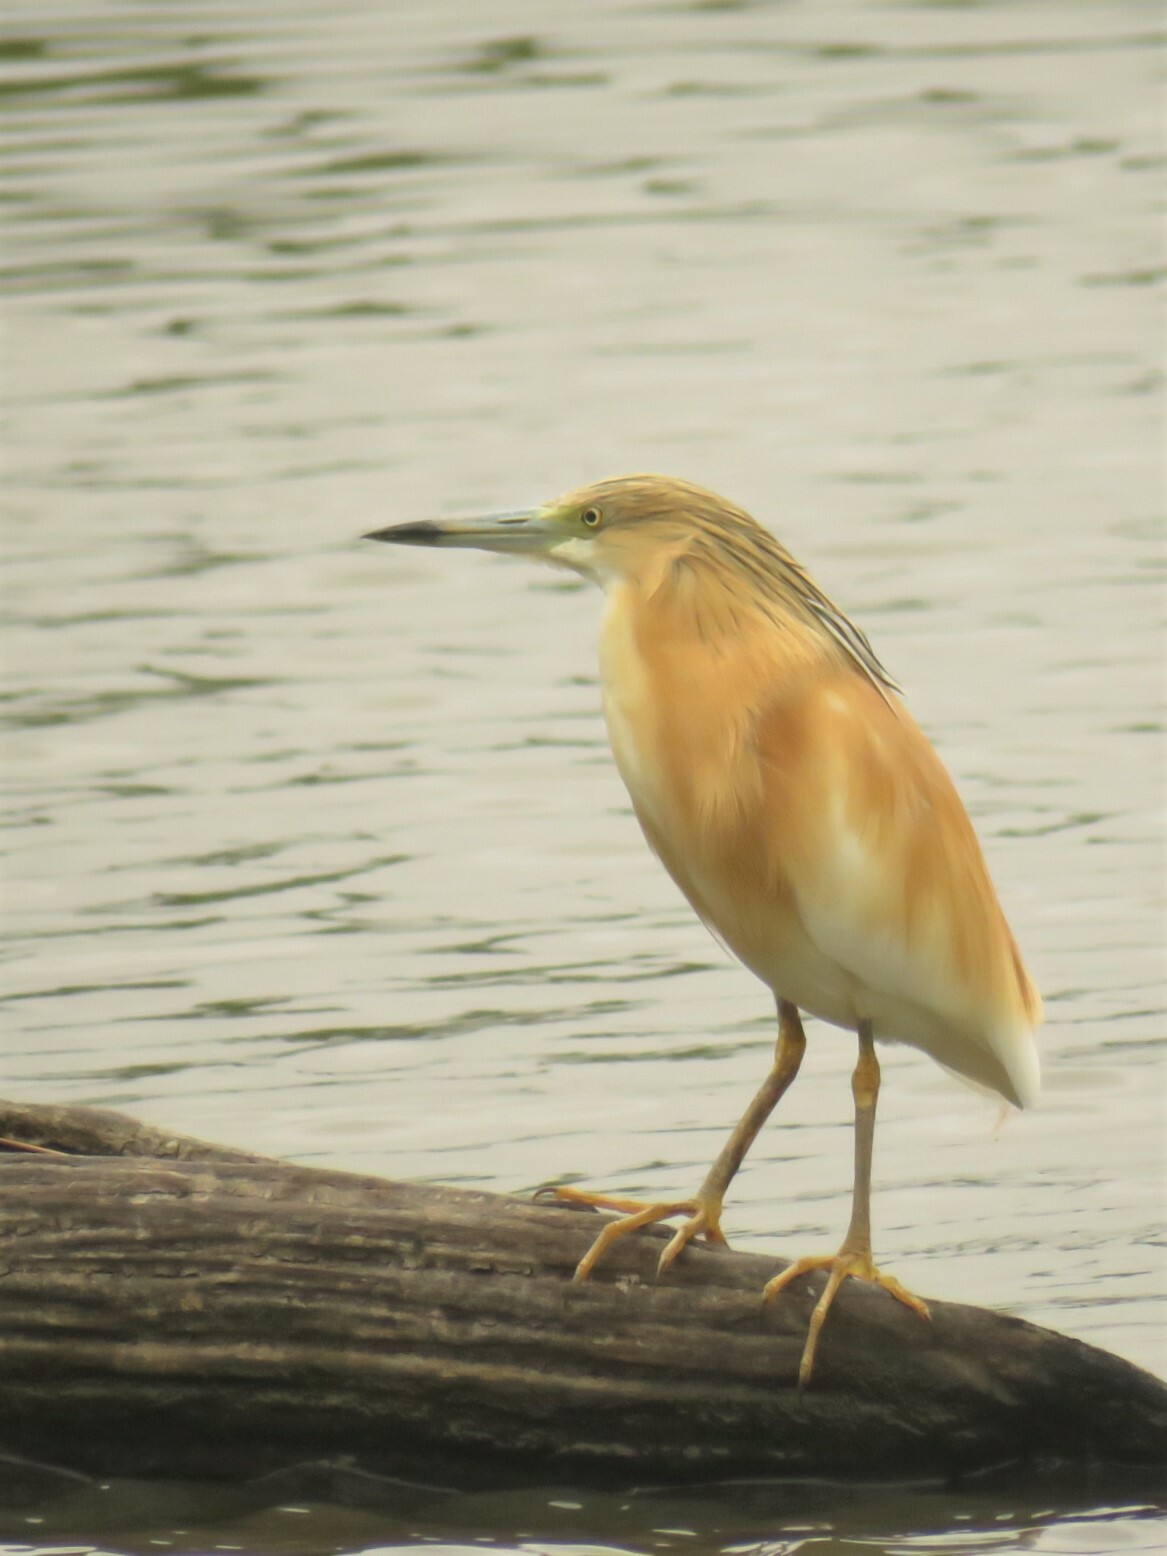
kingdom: Animalia
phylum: Chordata
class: Aves
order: Pelecaniformes
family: Ardeidae
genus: Ardeola
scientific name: Ardeola ralloides
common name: Squacco heron
